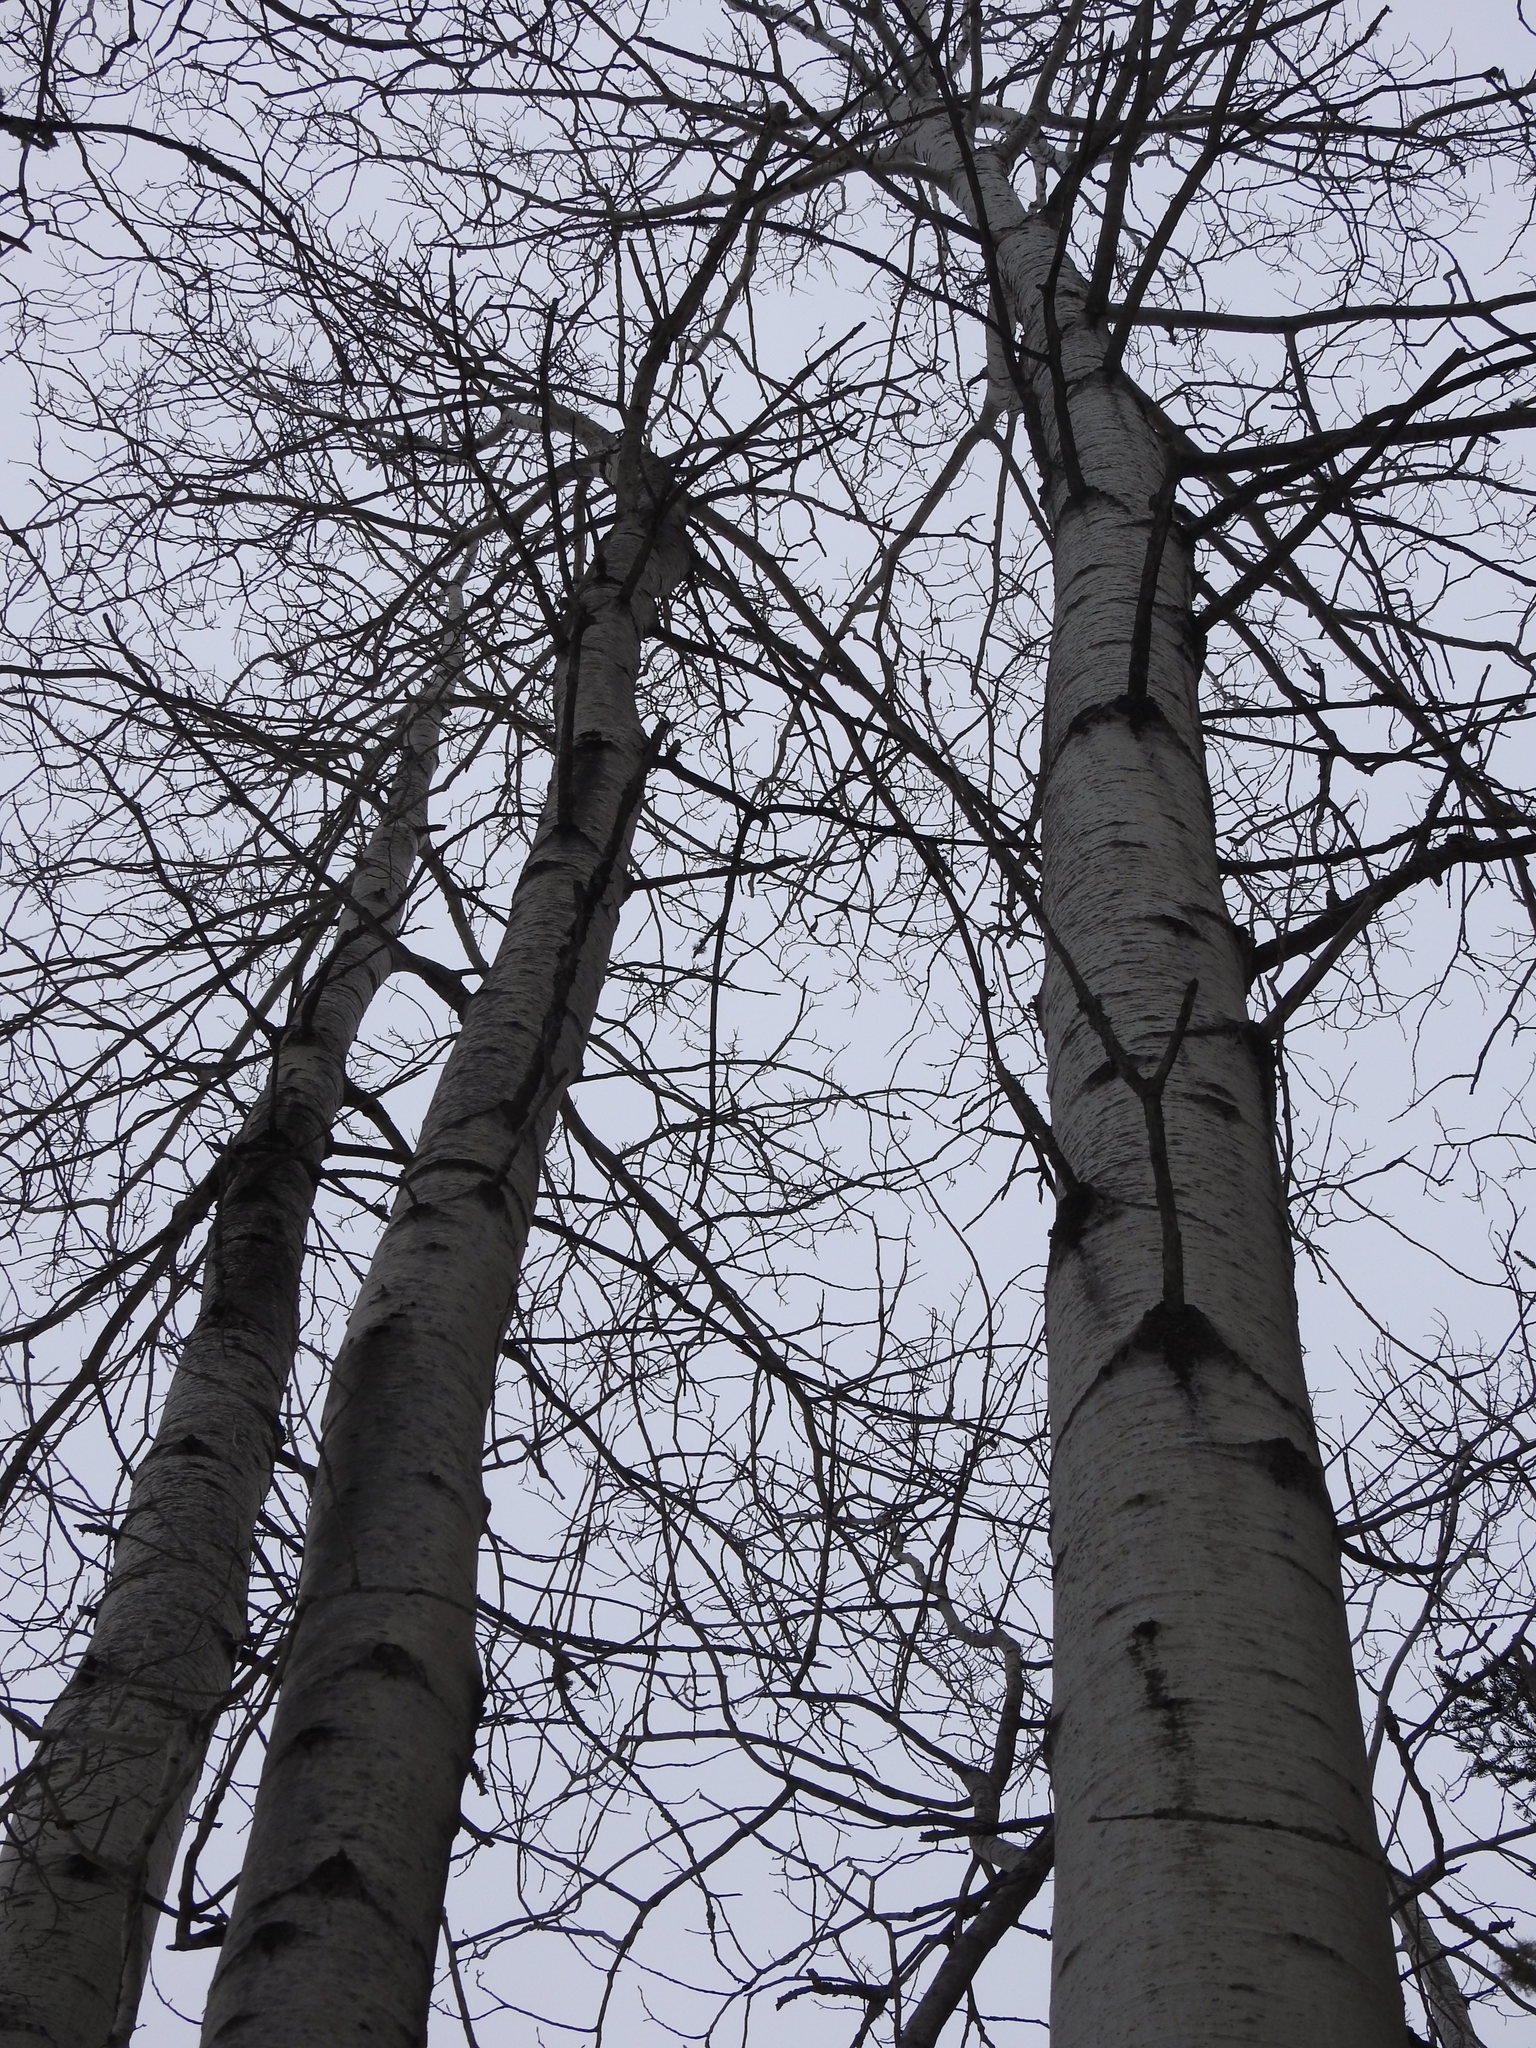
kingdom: Plantae
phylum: Tracheophyta
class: Magnoliopsida
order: Malpighiales
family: Salicaceae
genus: Populus
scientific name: Populus tremuloides
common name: Quaking aspen
